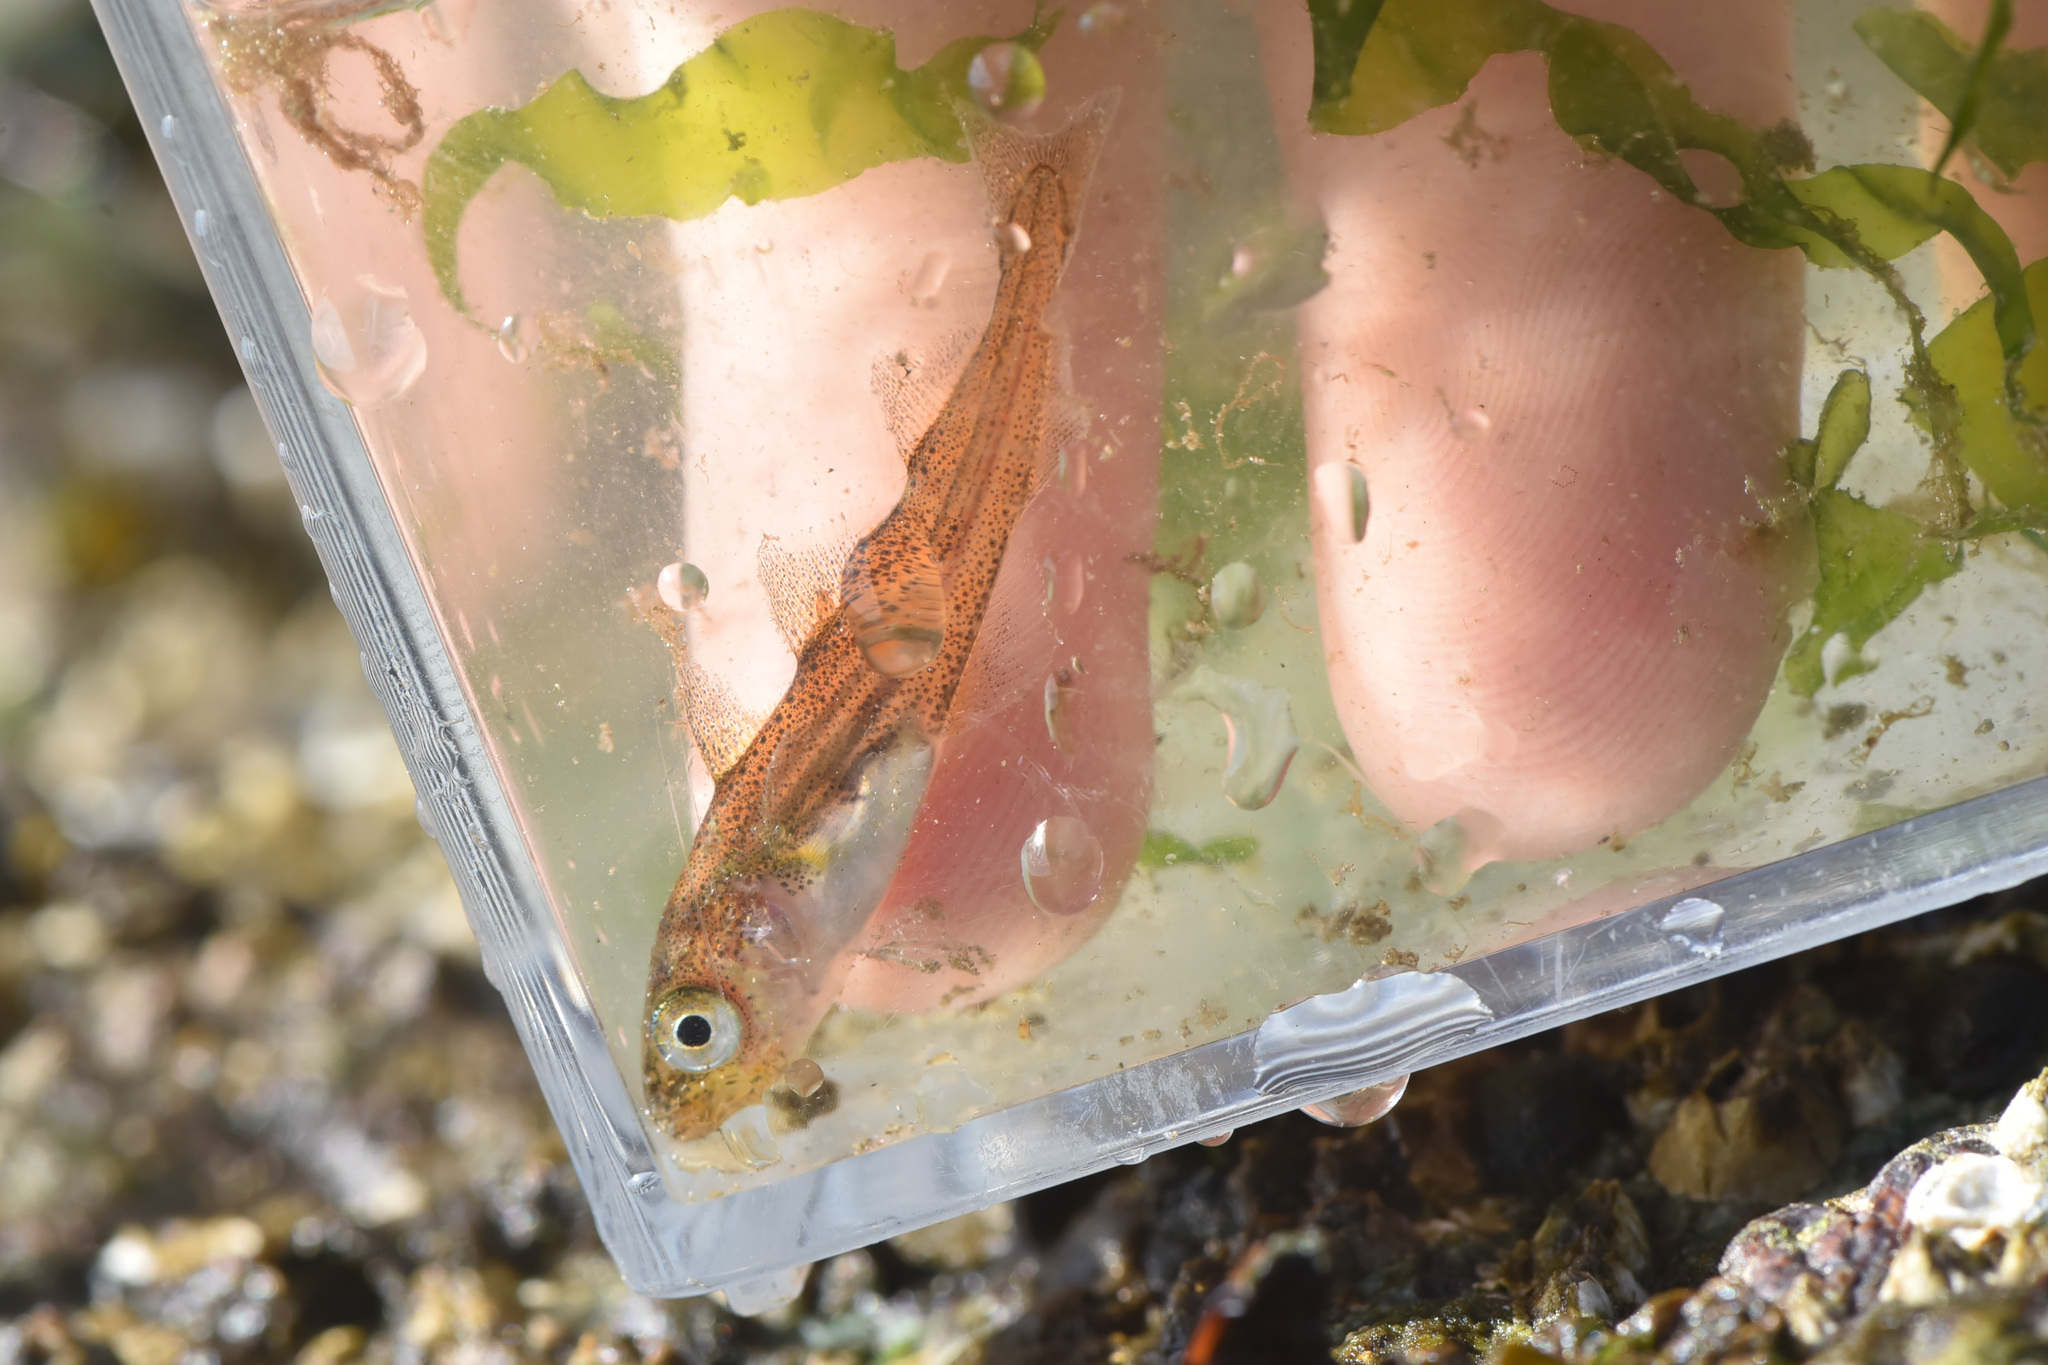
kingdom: Animalia
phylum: Chordata
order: Gadiformes
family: Gadidae
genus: Gadus
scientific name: Gadus chalcogrammus
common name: Walleye pollock
